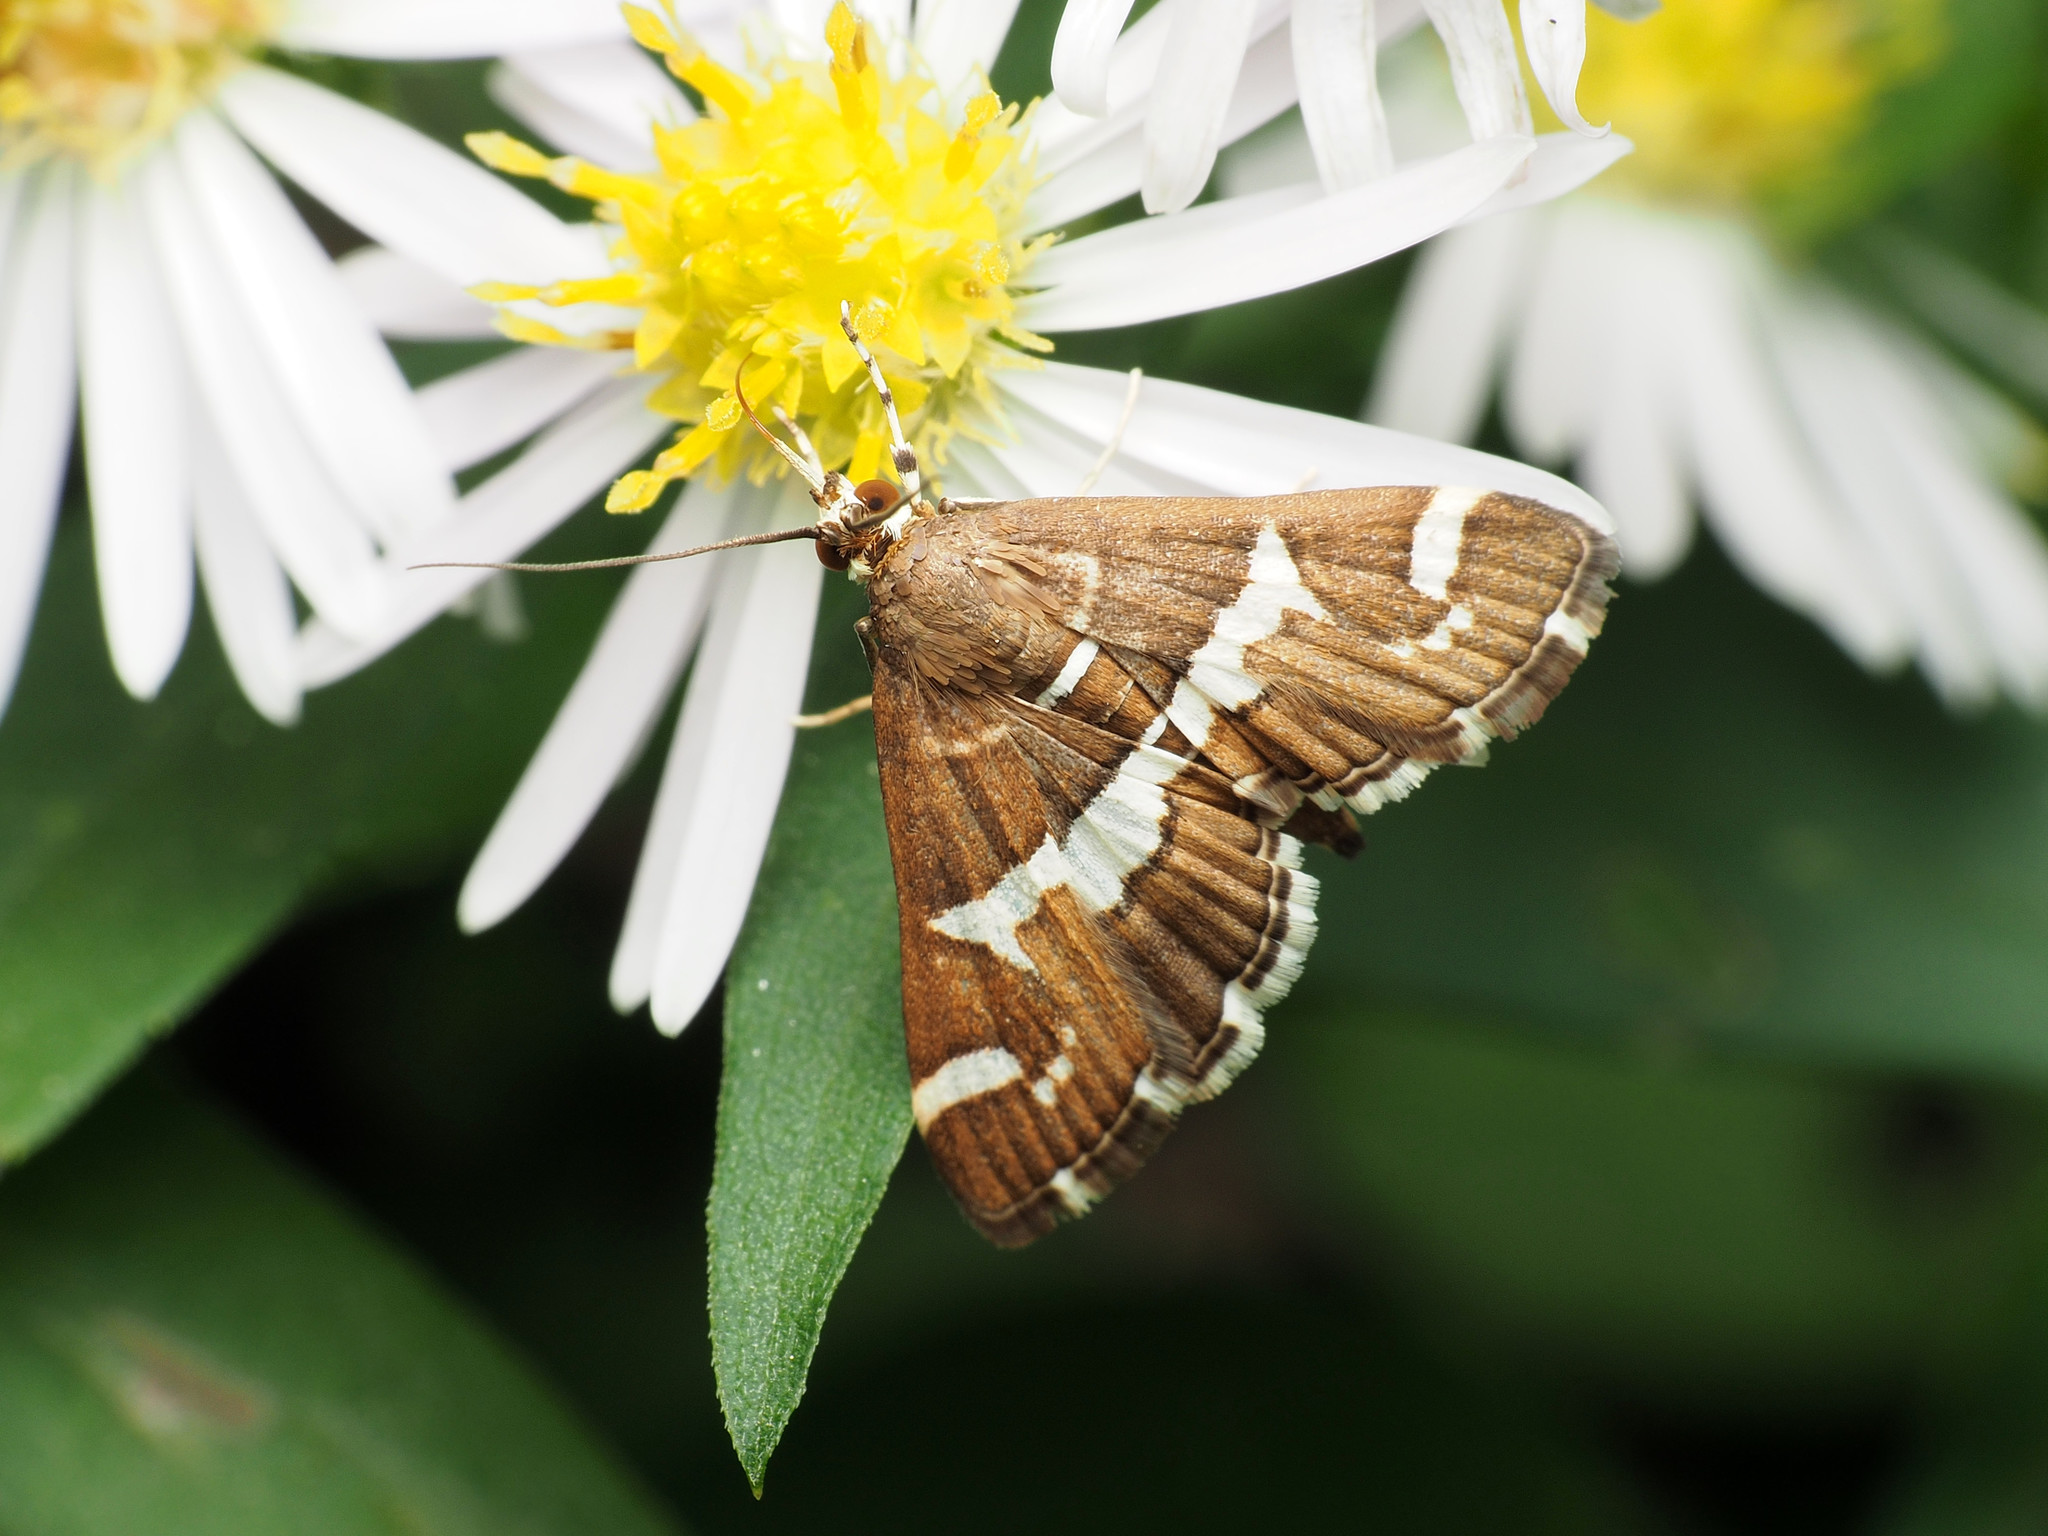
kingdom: Animalia
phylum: Arthropoda
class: Insecta
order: Lepidoptera
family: Crambidae
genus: Spoladea
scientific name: Spoladea recurvalis
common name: Beet webworm moth
